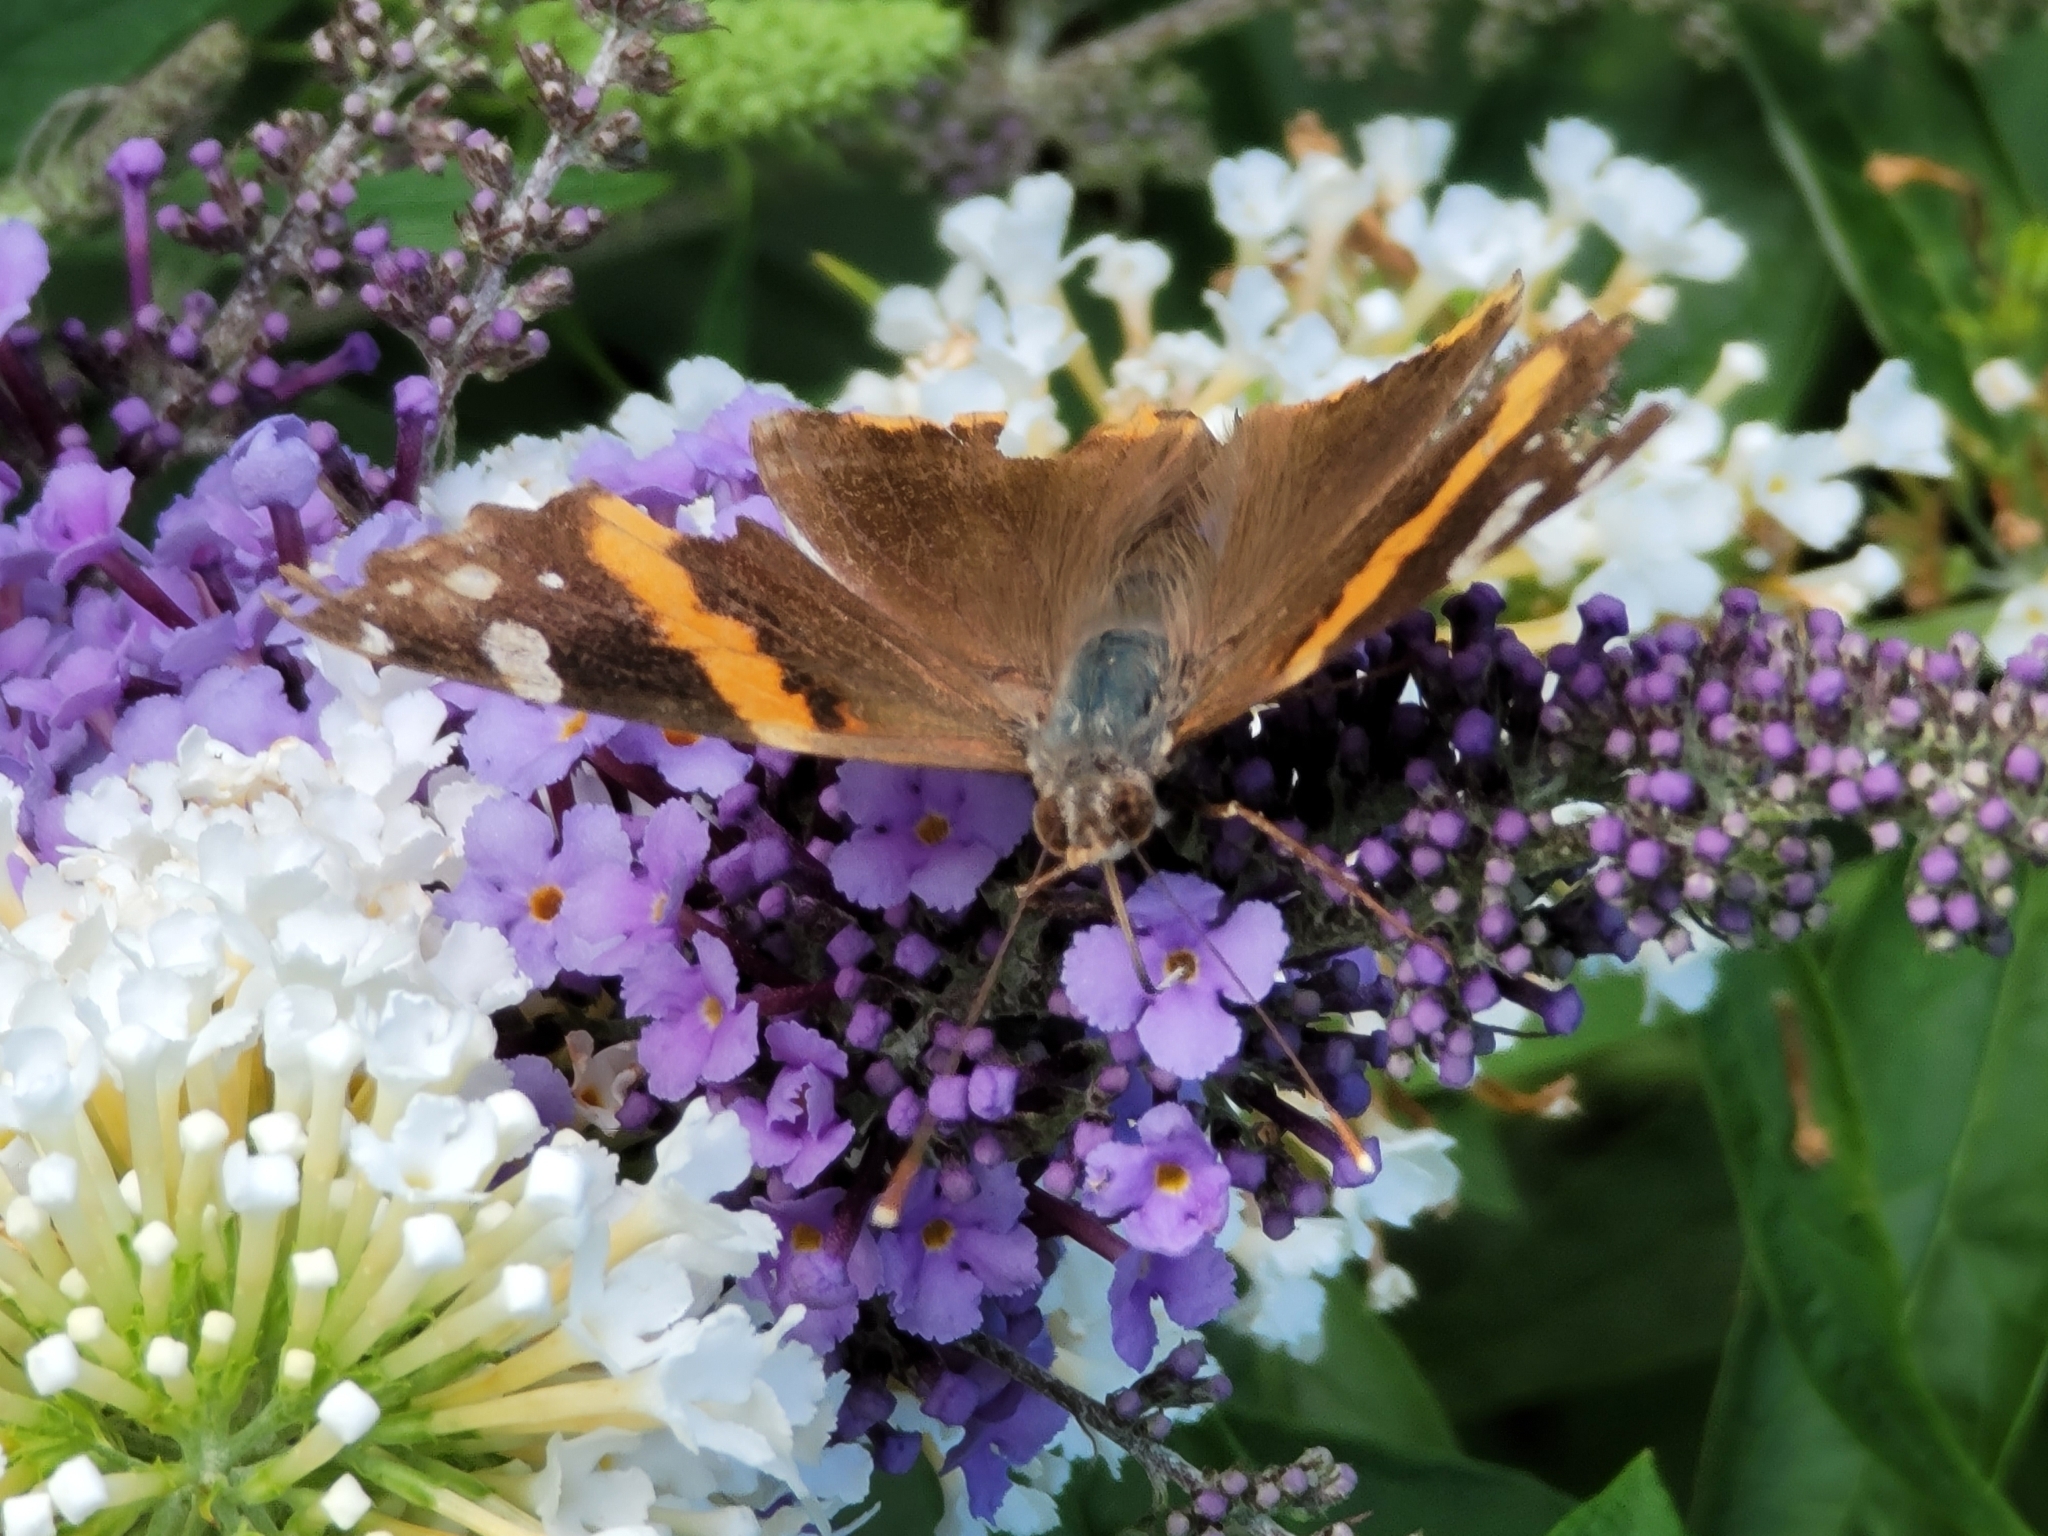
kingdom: Animalia
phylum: Arthropoda
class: Insecta
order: Lepidoptera
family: Nymphalidae
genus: Vanessa
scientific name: Vanessa atalanta
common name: Red admiral
